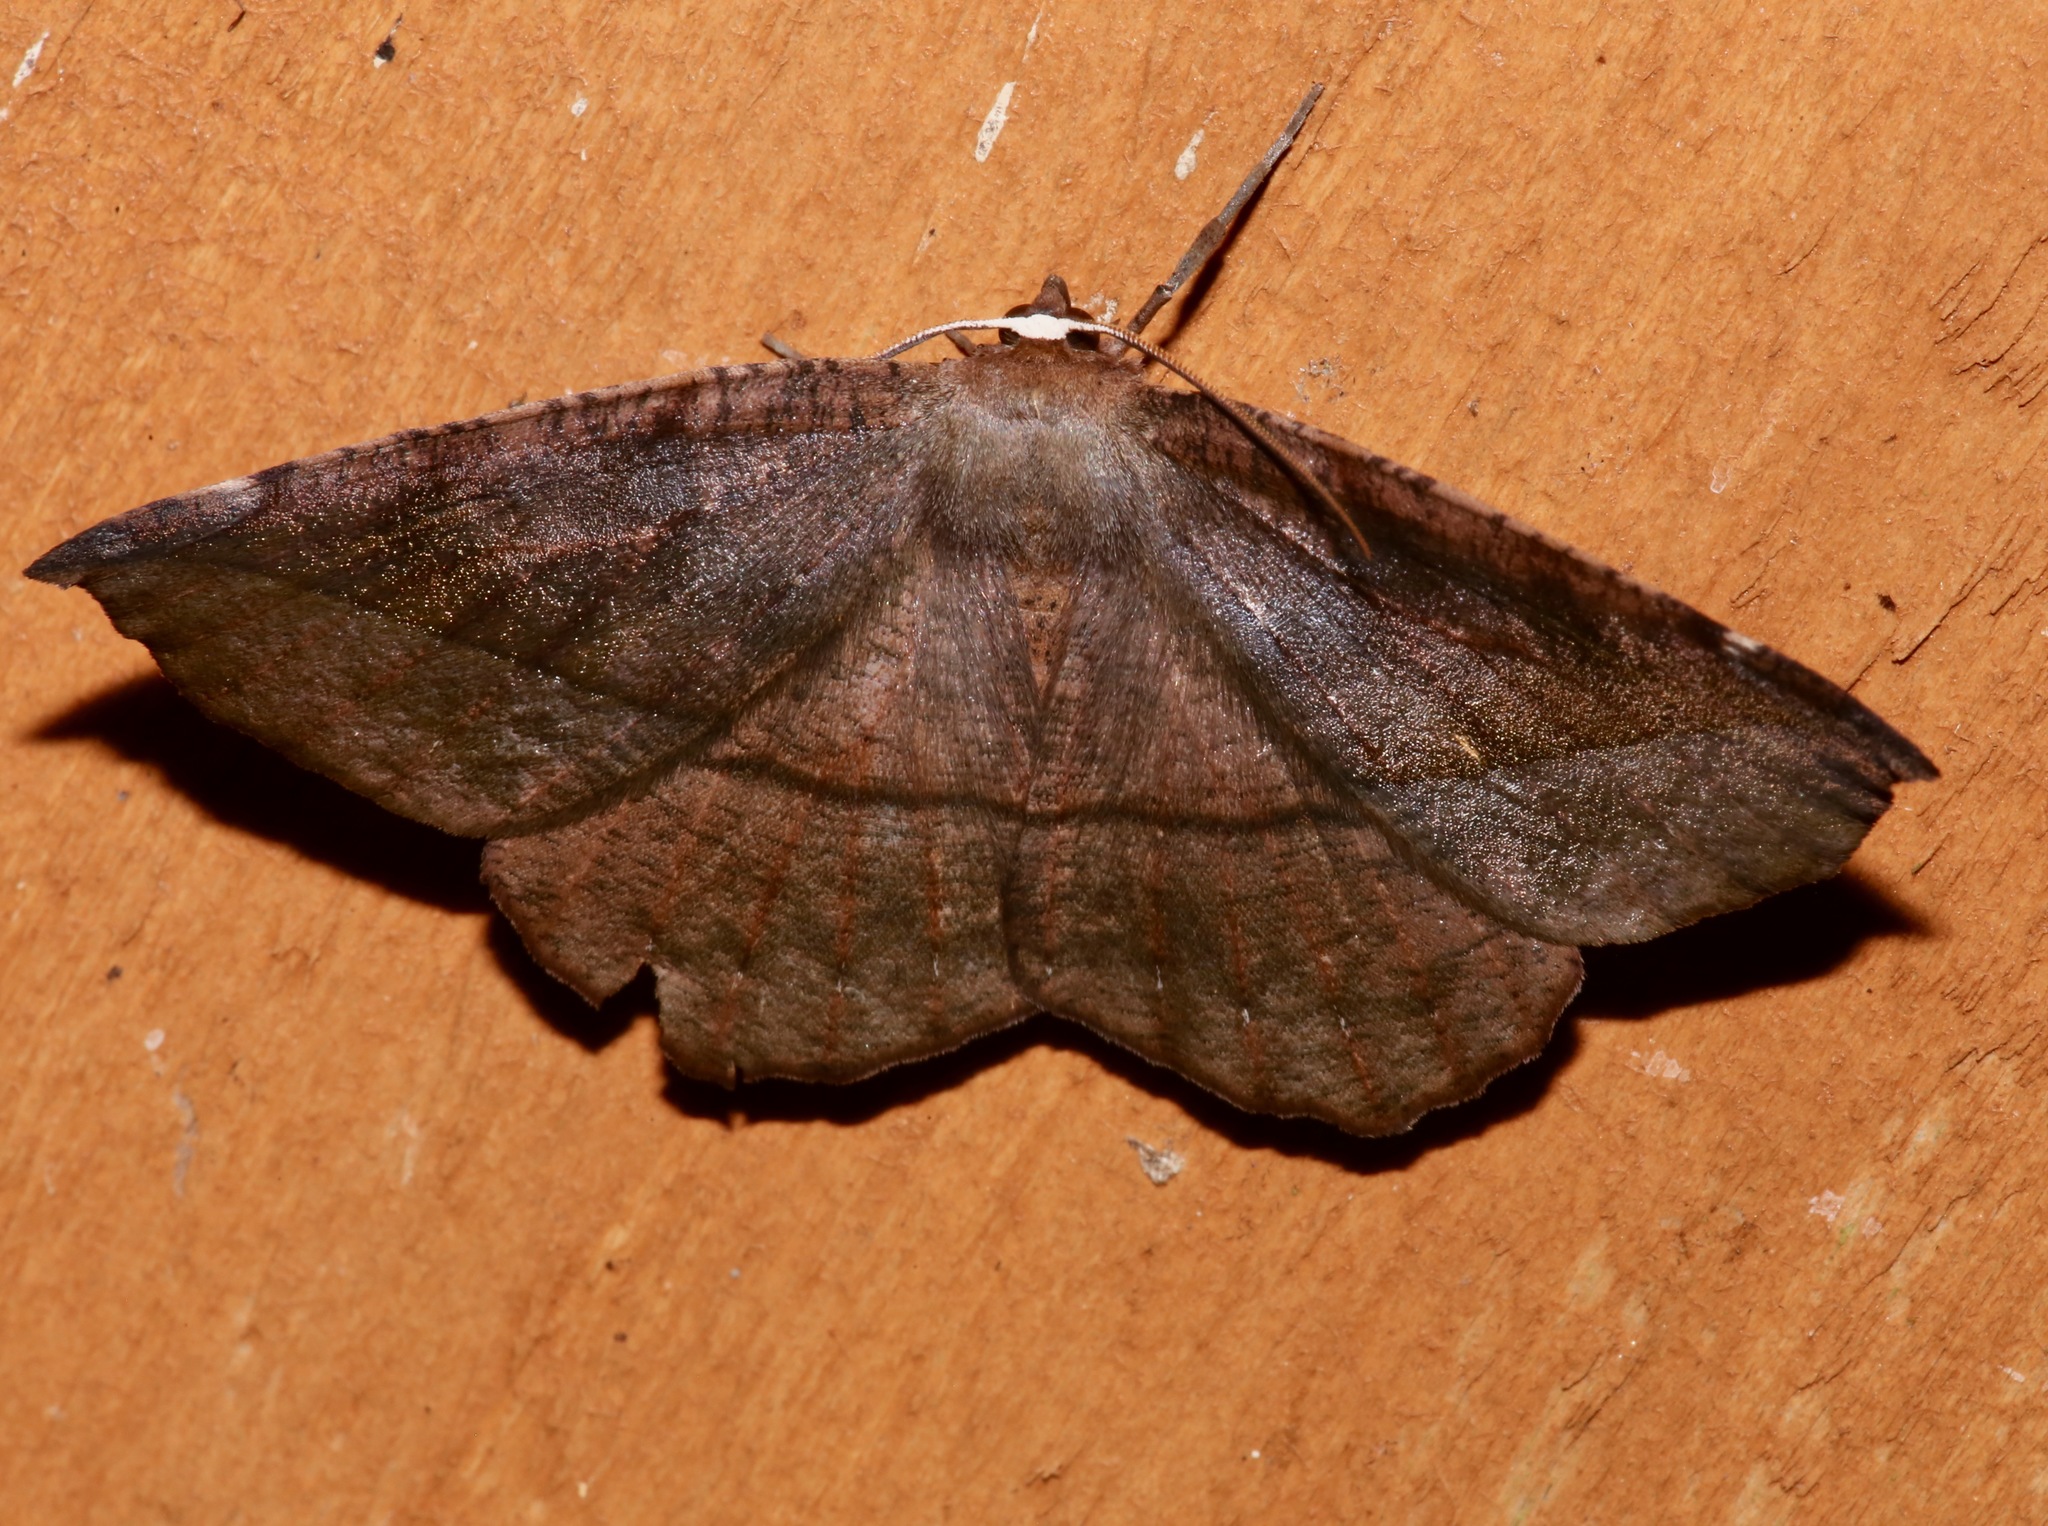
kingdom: Animalia
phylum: Arthropoda
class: Insecta
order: Lepidoptera
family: Geometridae
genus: Eutrapela
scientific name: Eutrapela clemataria
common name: Curved-toothed geometer
